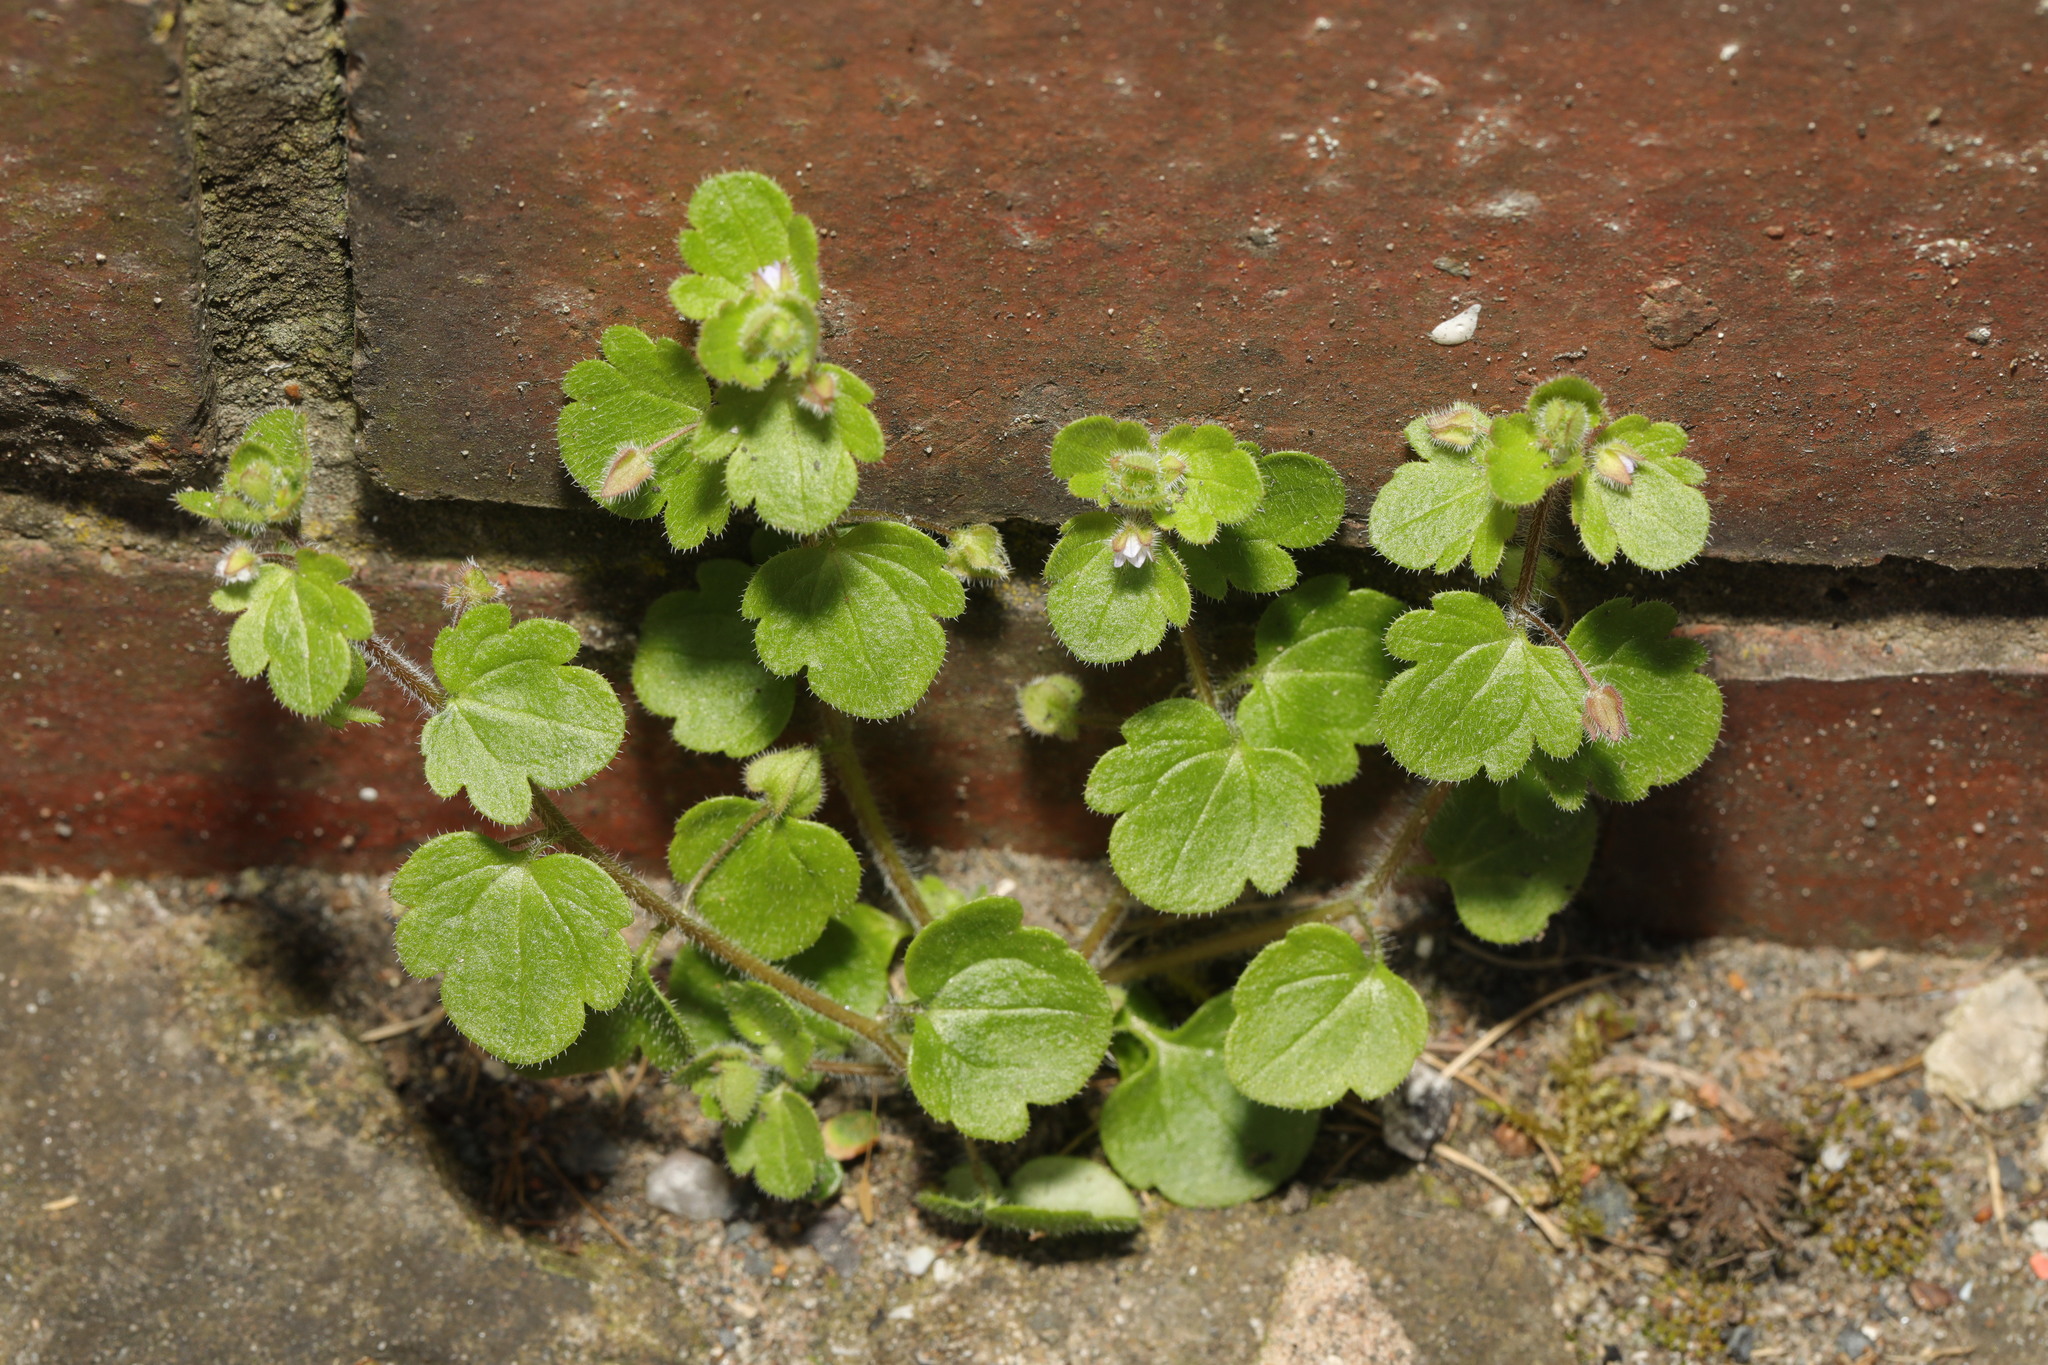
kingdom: Plantae
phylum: Tracheophyta
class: Magnoliopsida
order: Lamiales
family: Plantaginaceae
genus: Veronica
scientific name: Veronica sublobata
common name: False ivy-leaved speedwell
